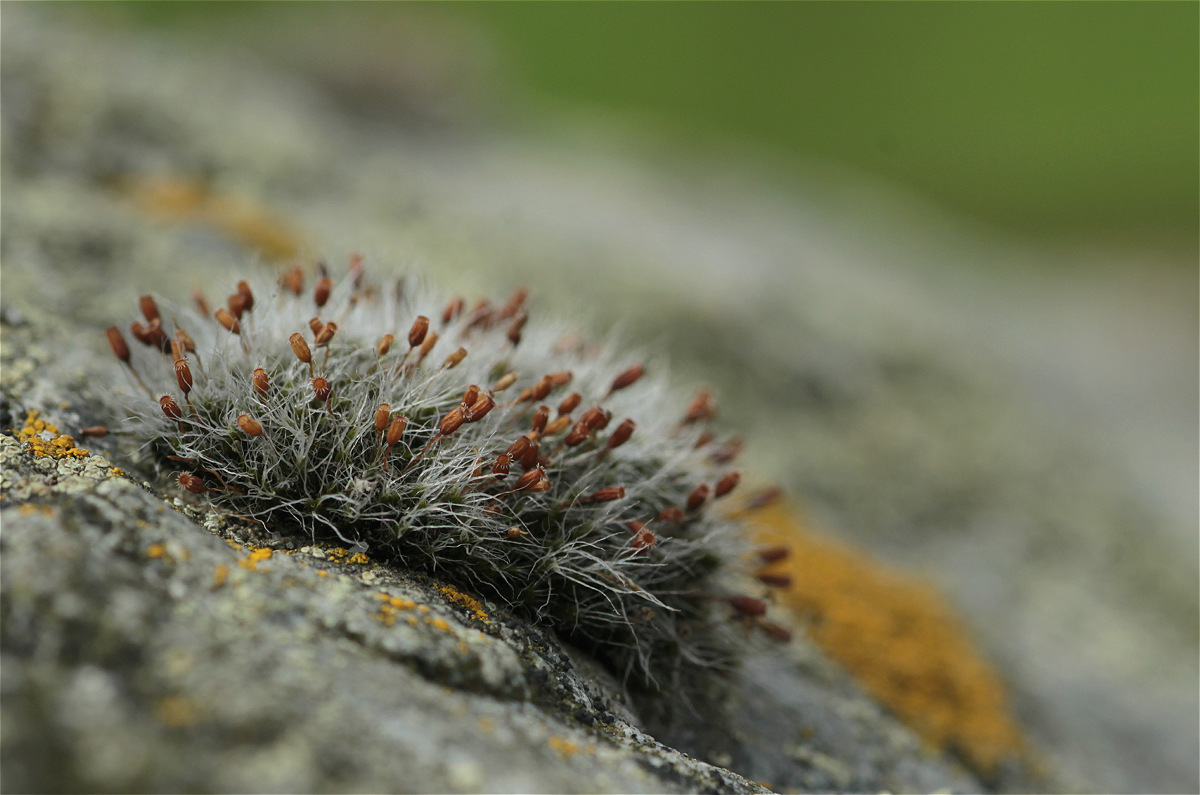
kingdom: Plantae
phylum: Bryophyta
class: Bryopsida
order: Grimmiales
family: Grimmiaceae
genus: Grimmia
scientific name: Grimmia pulvinata
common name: Grey-cushioned grimmia
